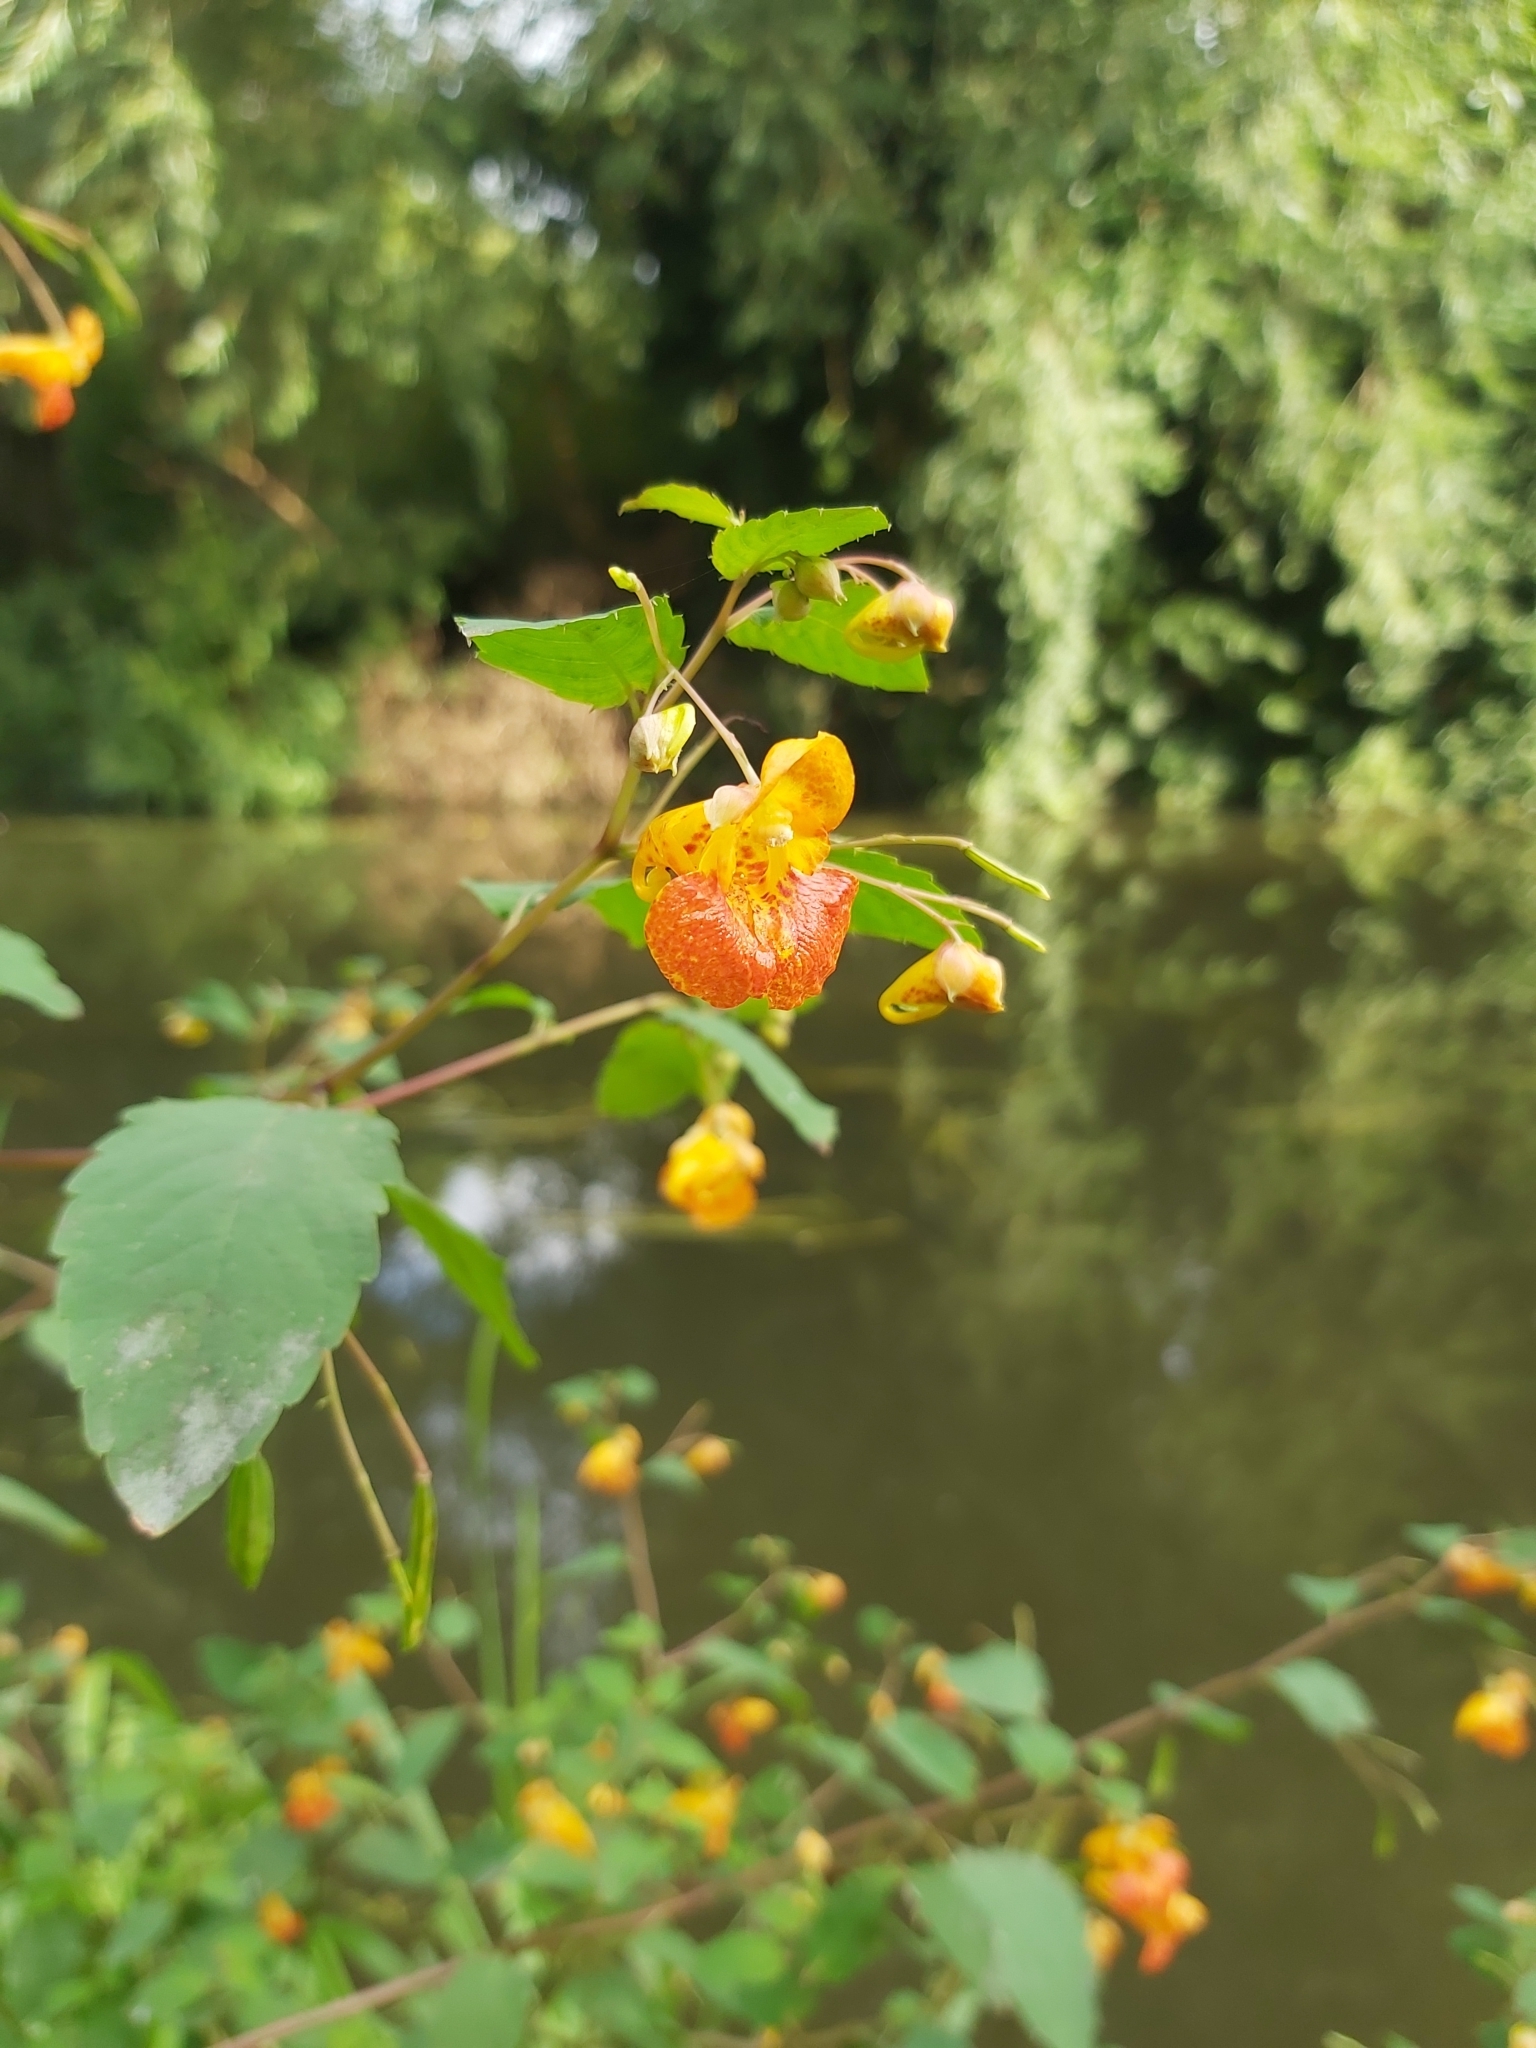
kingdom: Plantae
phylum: Tracheophyta
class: Magnoliopsida
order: Ericales
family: Balsaminaceae
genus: Impatiens
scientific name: Impatiens capensis
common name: Orange balsam
